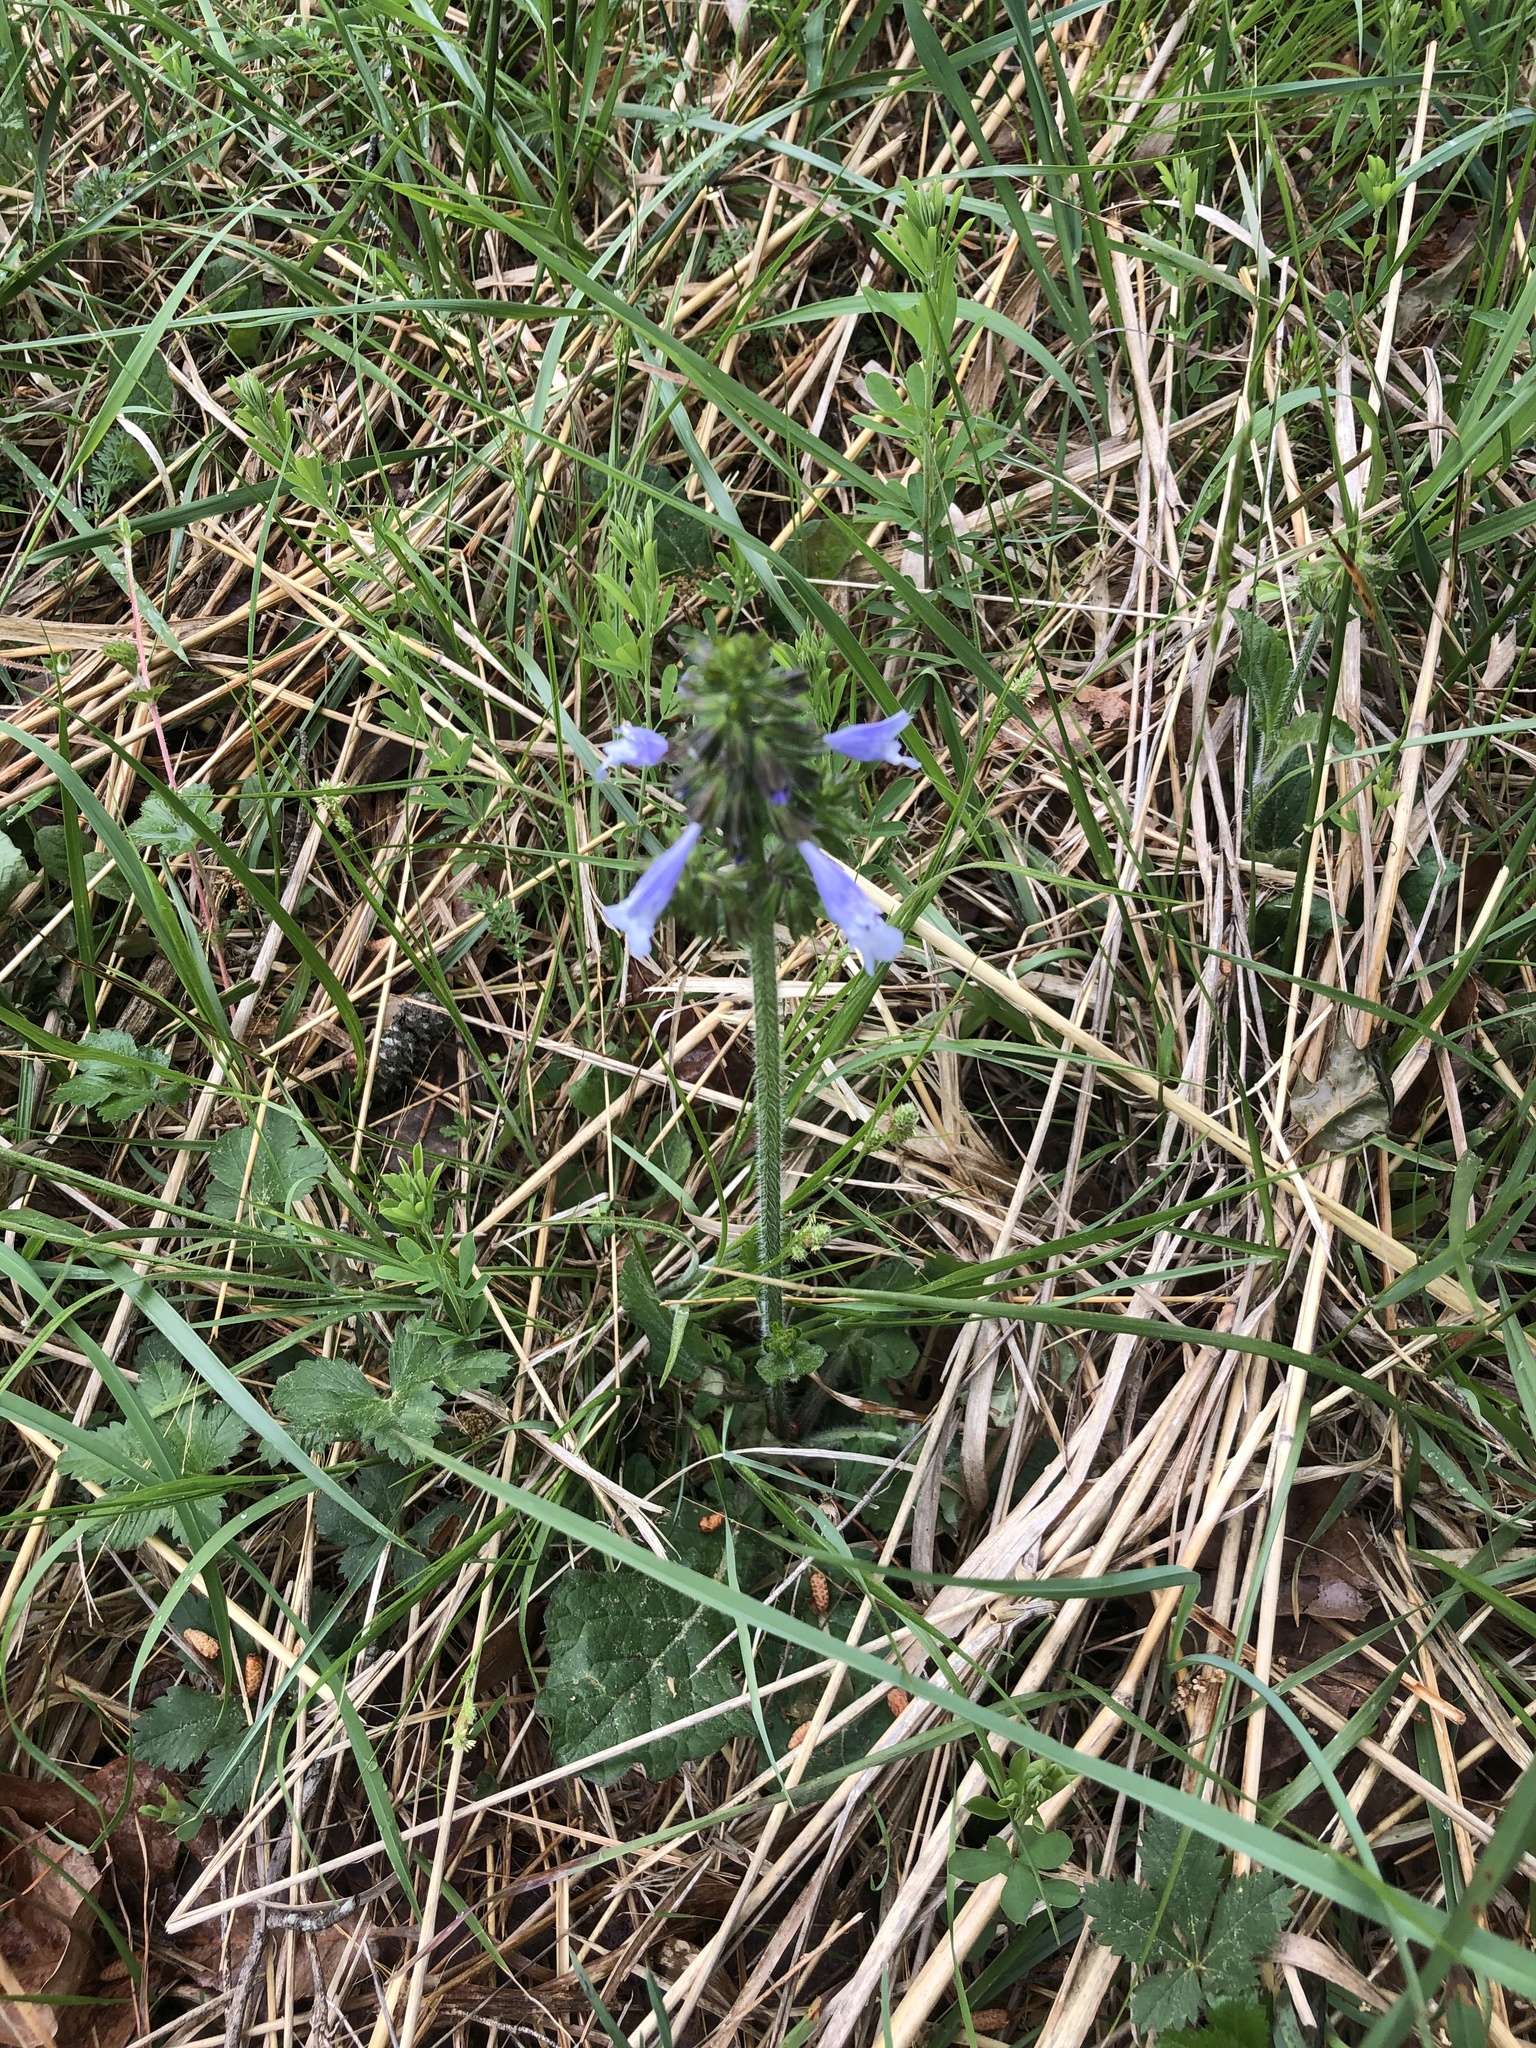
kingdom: Plantae
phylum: Tracheophyta
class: Magnoliopsida
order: Lamiales
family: Lamiaceae
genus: Salvia
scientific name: Salvia lyrata
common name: Cancerweed
